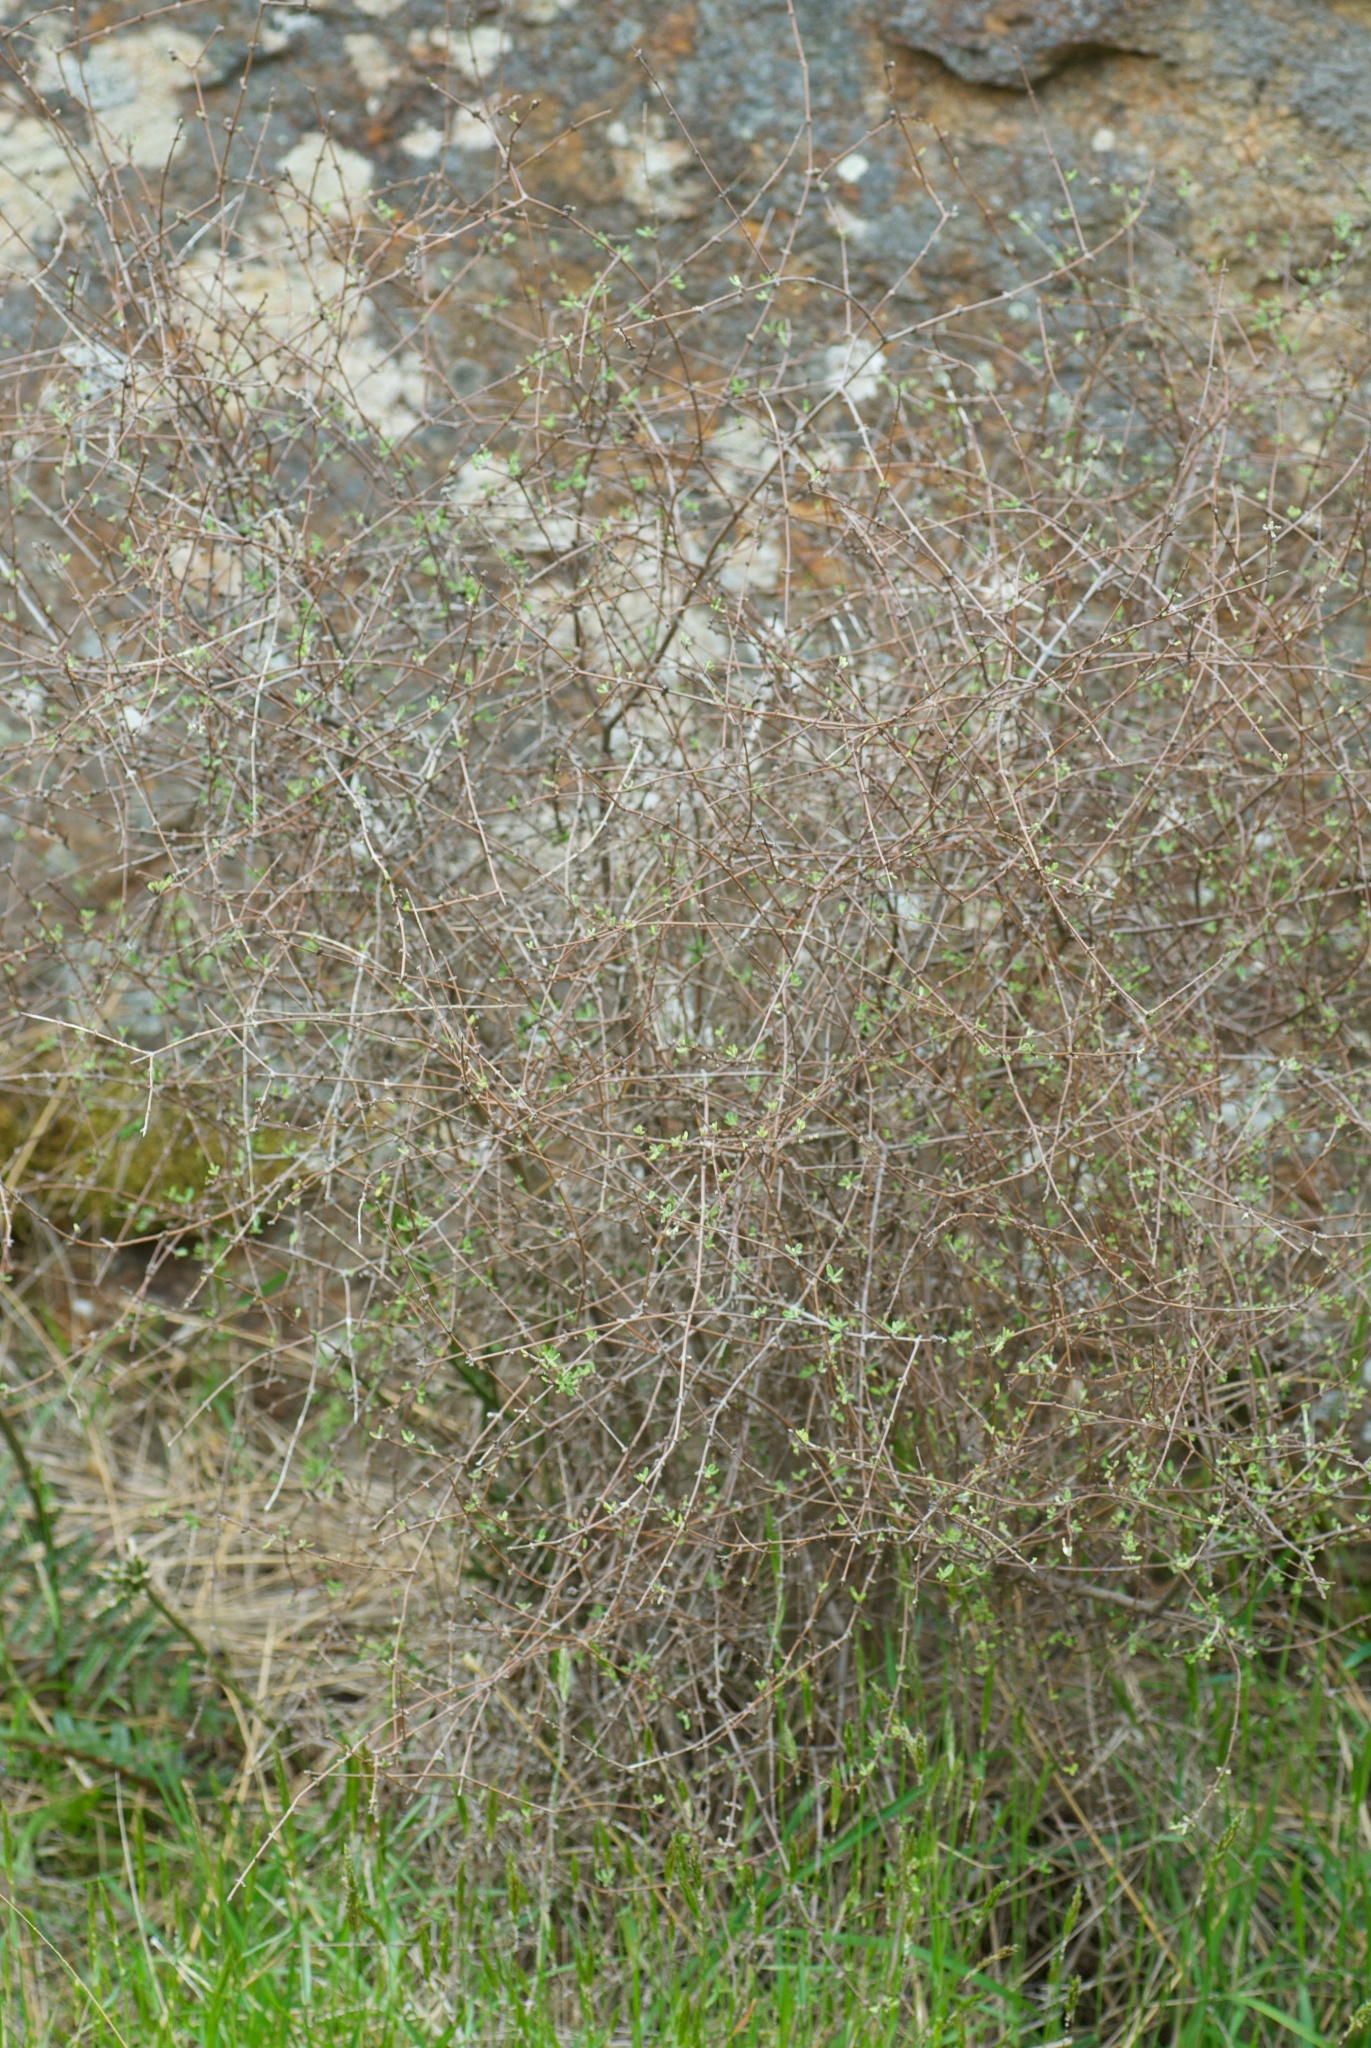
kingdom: Plantae
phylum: Tracheophyta
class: Magnoliopsida
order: Asterales
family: Asteraceae
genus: Olearia
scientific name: Olearia bullata
